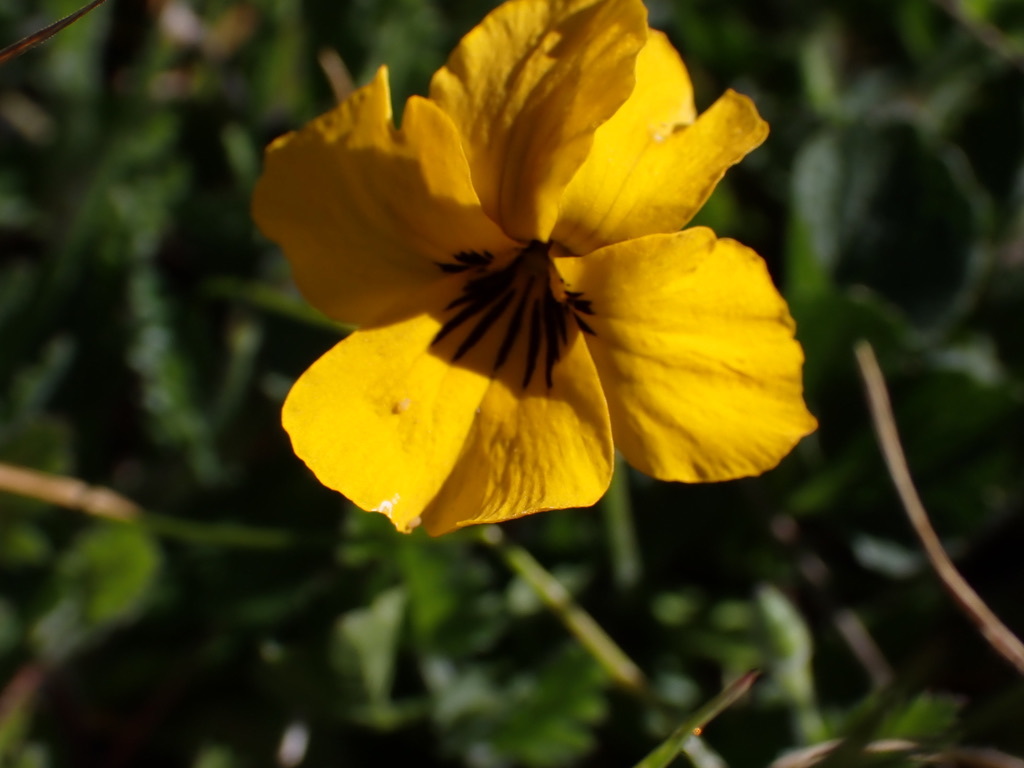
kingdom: Plantae
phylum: Tracheophyta
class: Magnoliopsida
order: Malpighiales
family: Violaceae
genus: Viola
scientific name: Viola pedunculata
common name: California golden violet
